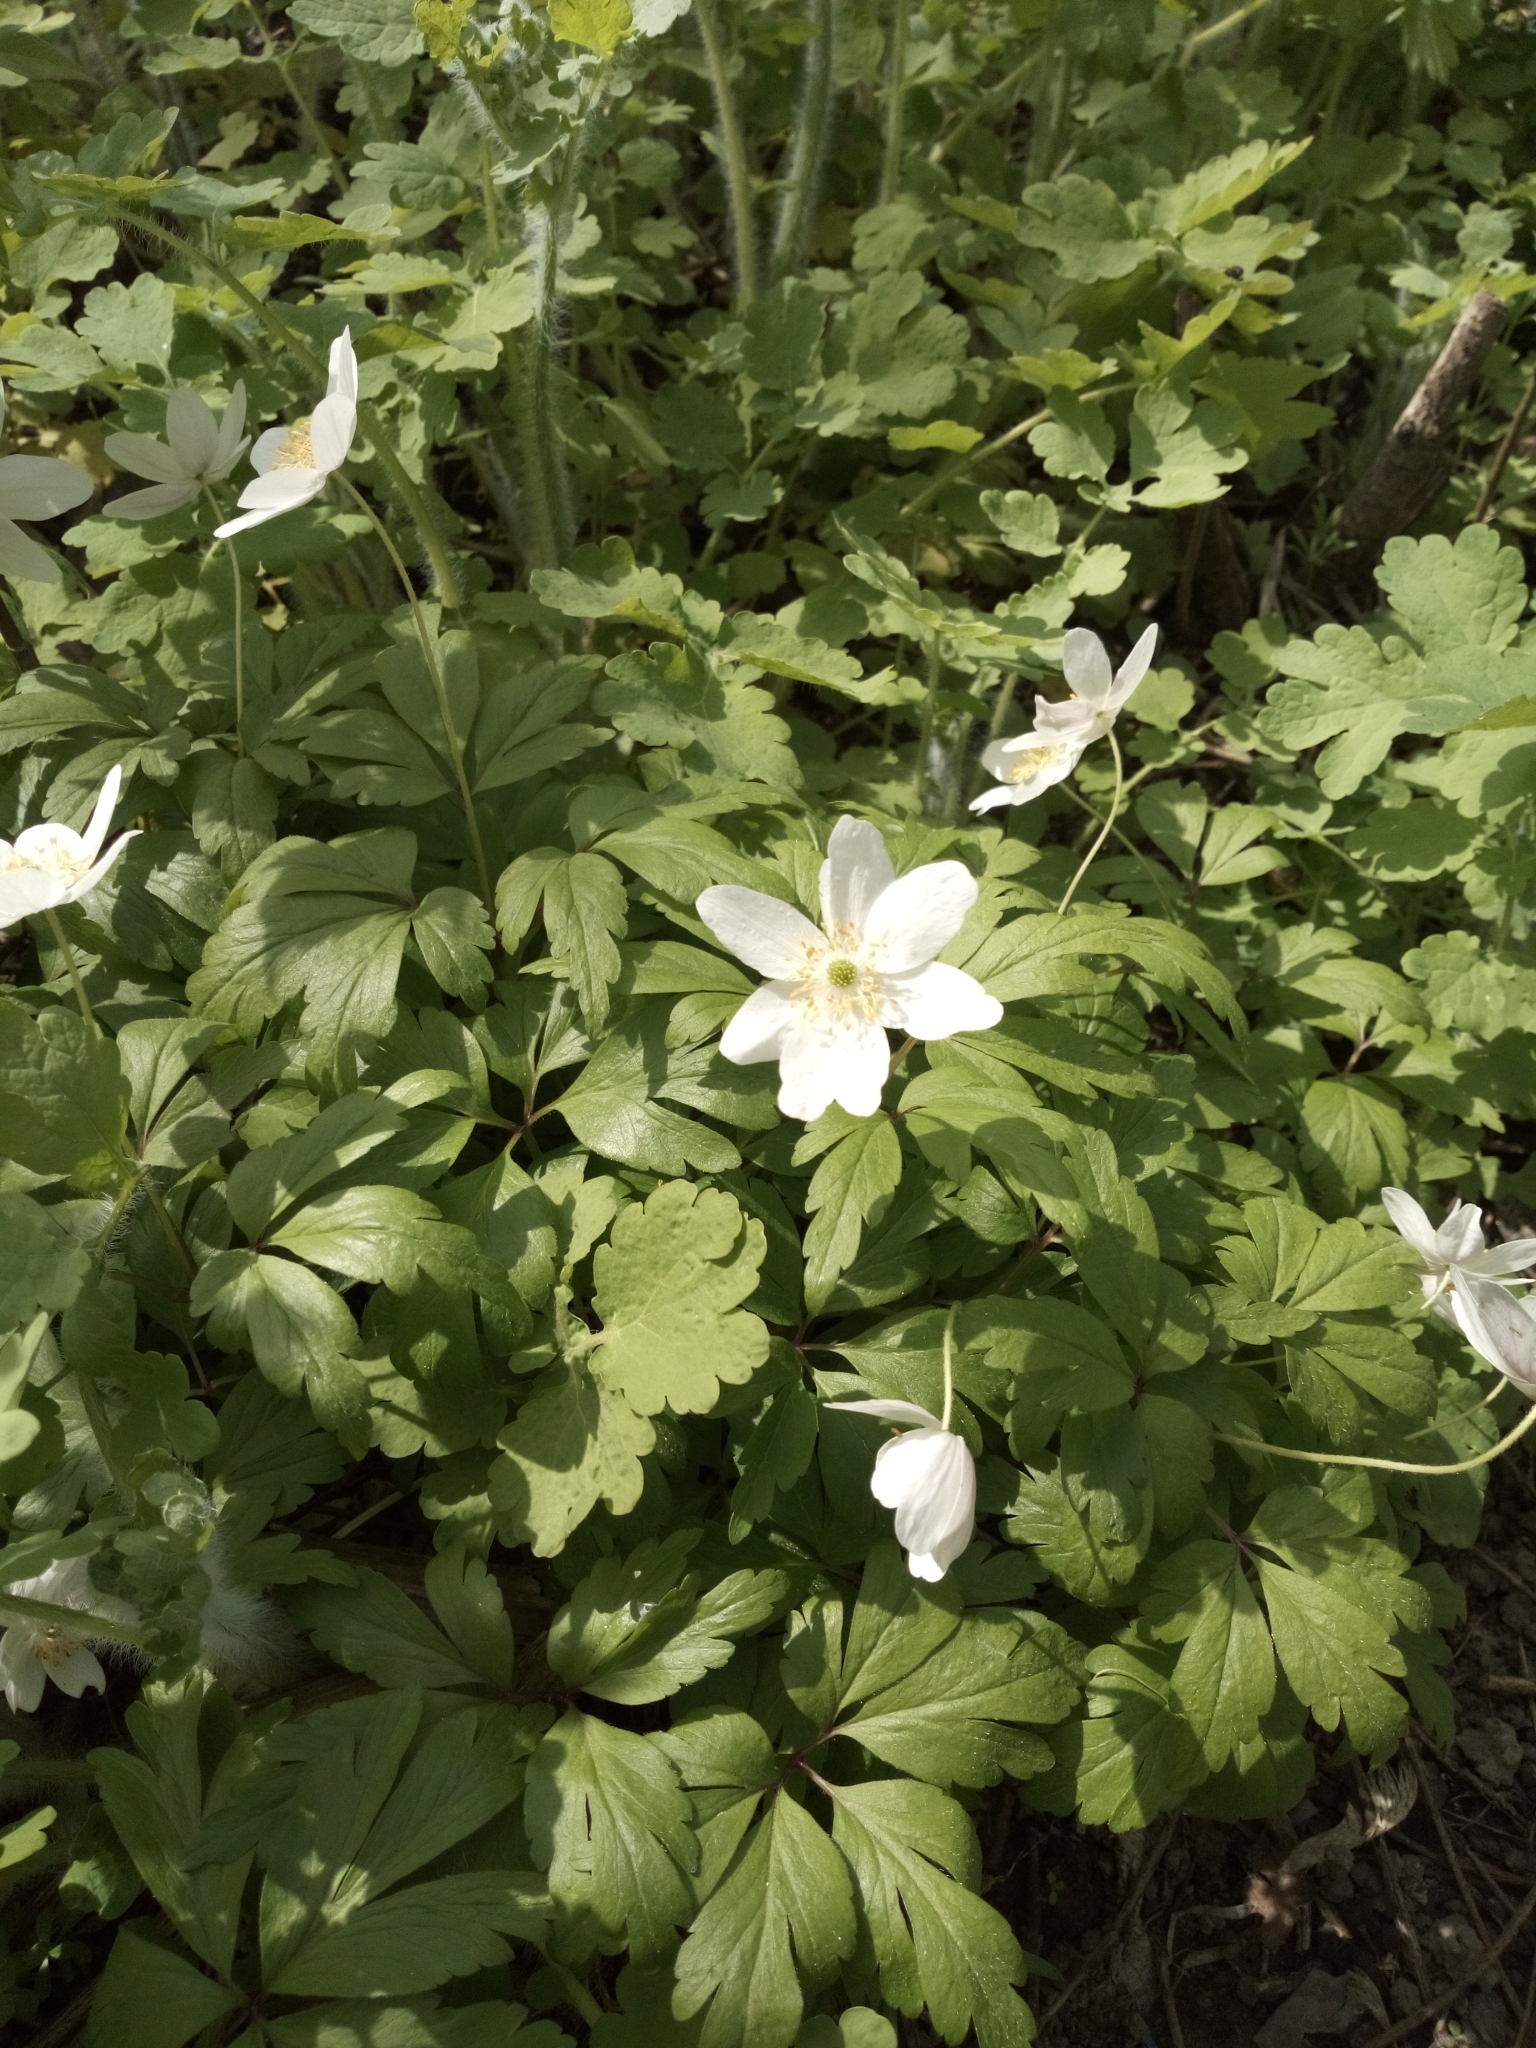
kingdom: Plantae
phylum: Tracheophyta
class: Magnoliopsida
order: Ranunculales
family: Ranunculaceae
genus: Anemone
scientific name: Anemone nemorosa
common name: Wood anemone
